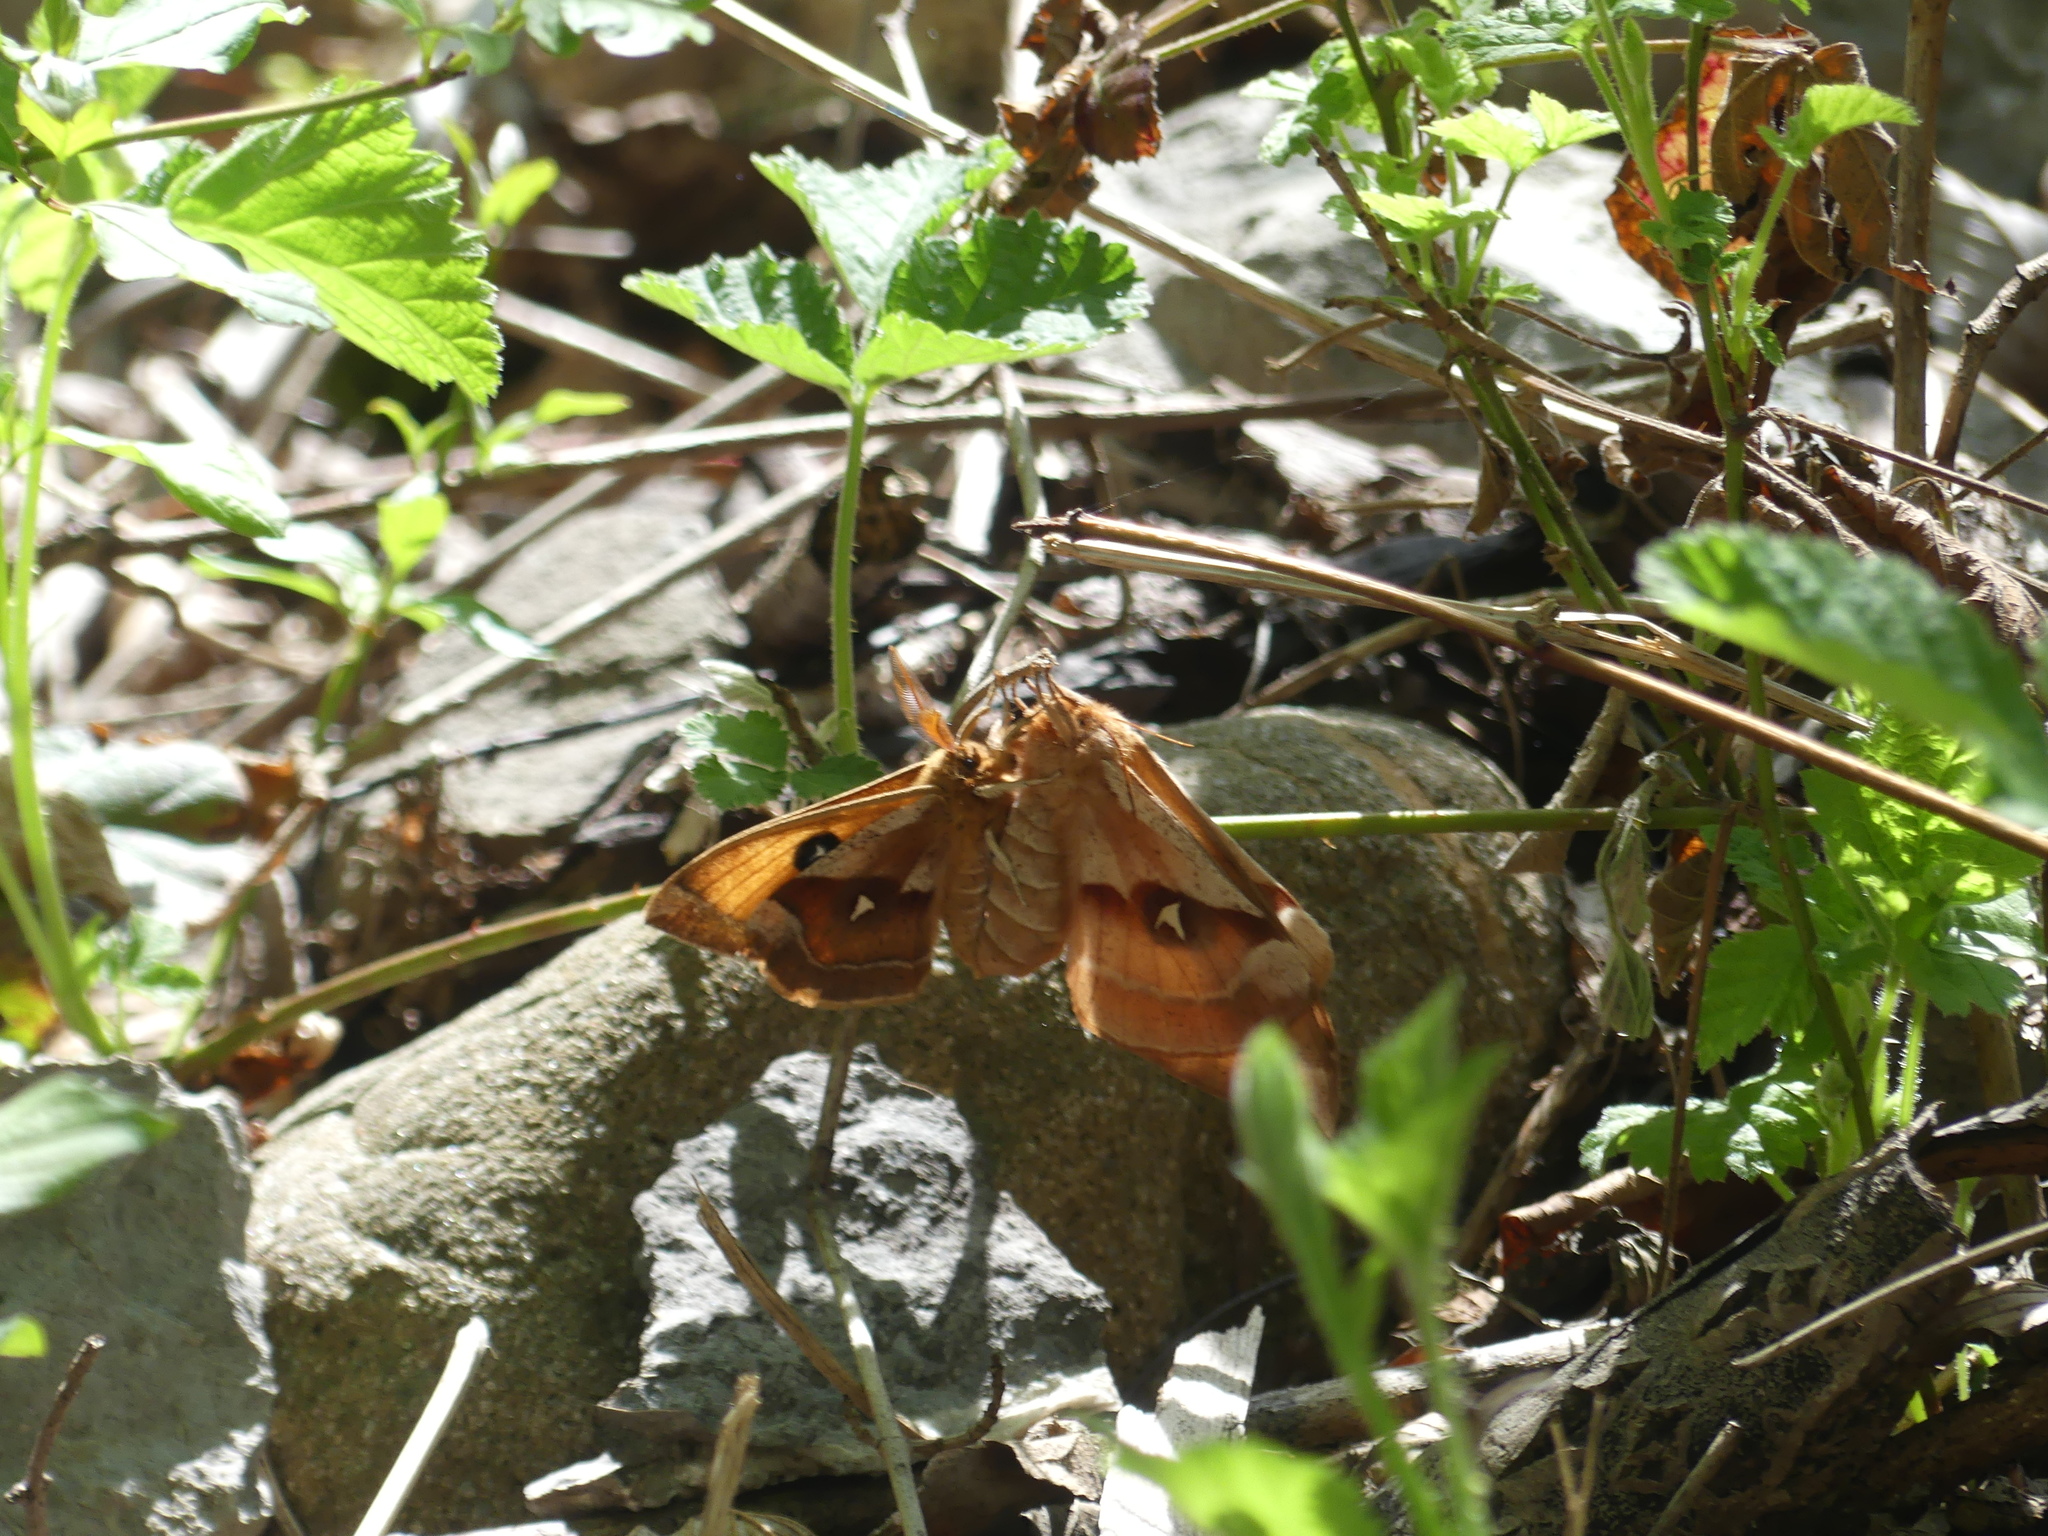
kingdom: Animalia
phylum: Arthropoda
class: Insecta
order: Lepidoptera
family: Saturniidae
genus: Aglia
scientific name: Aglia tau
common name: Tau emperor
